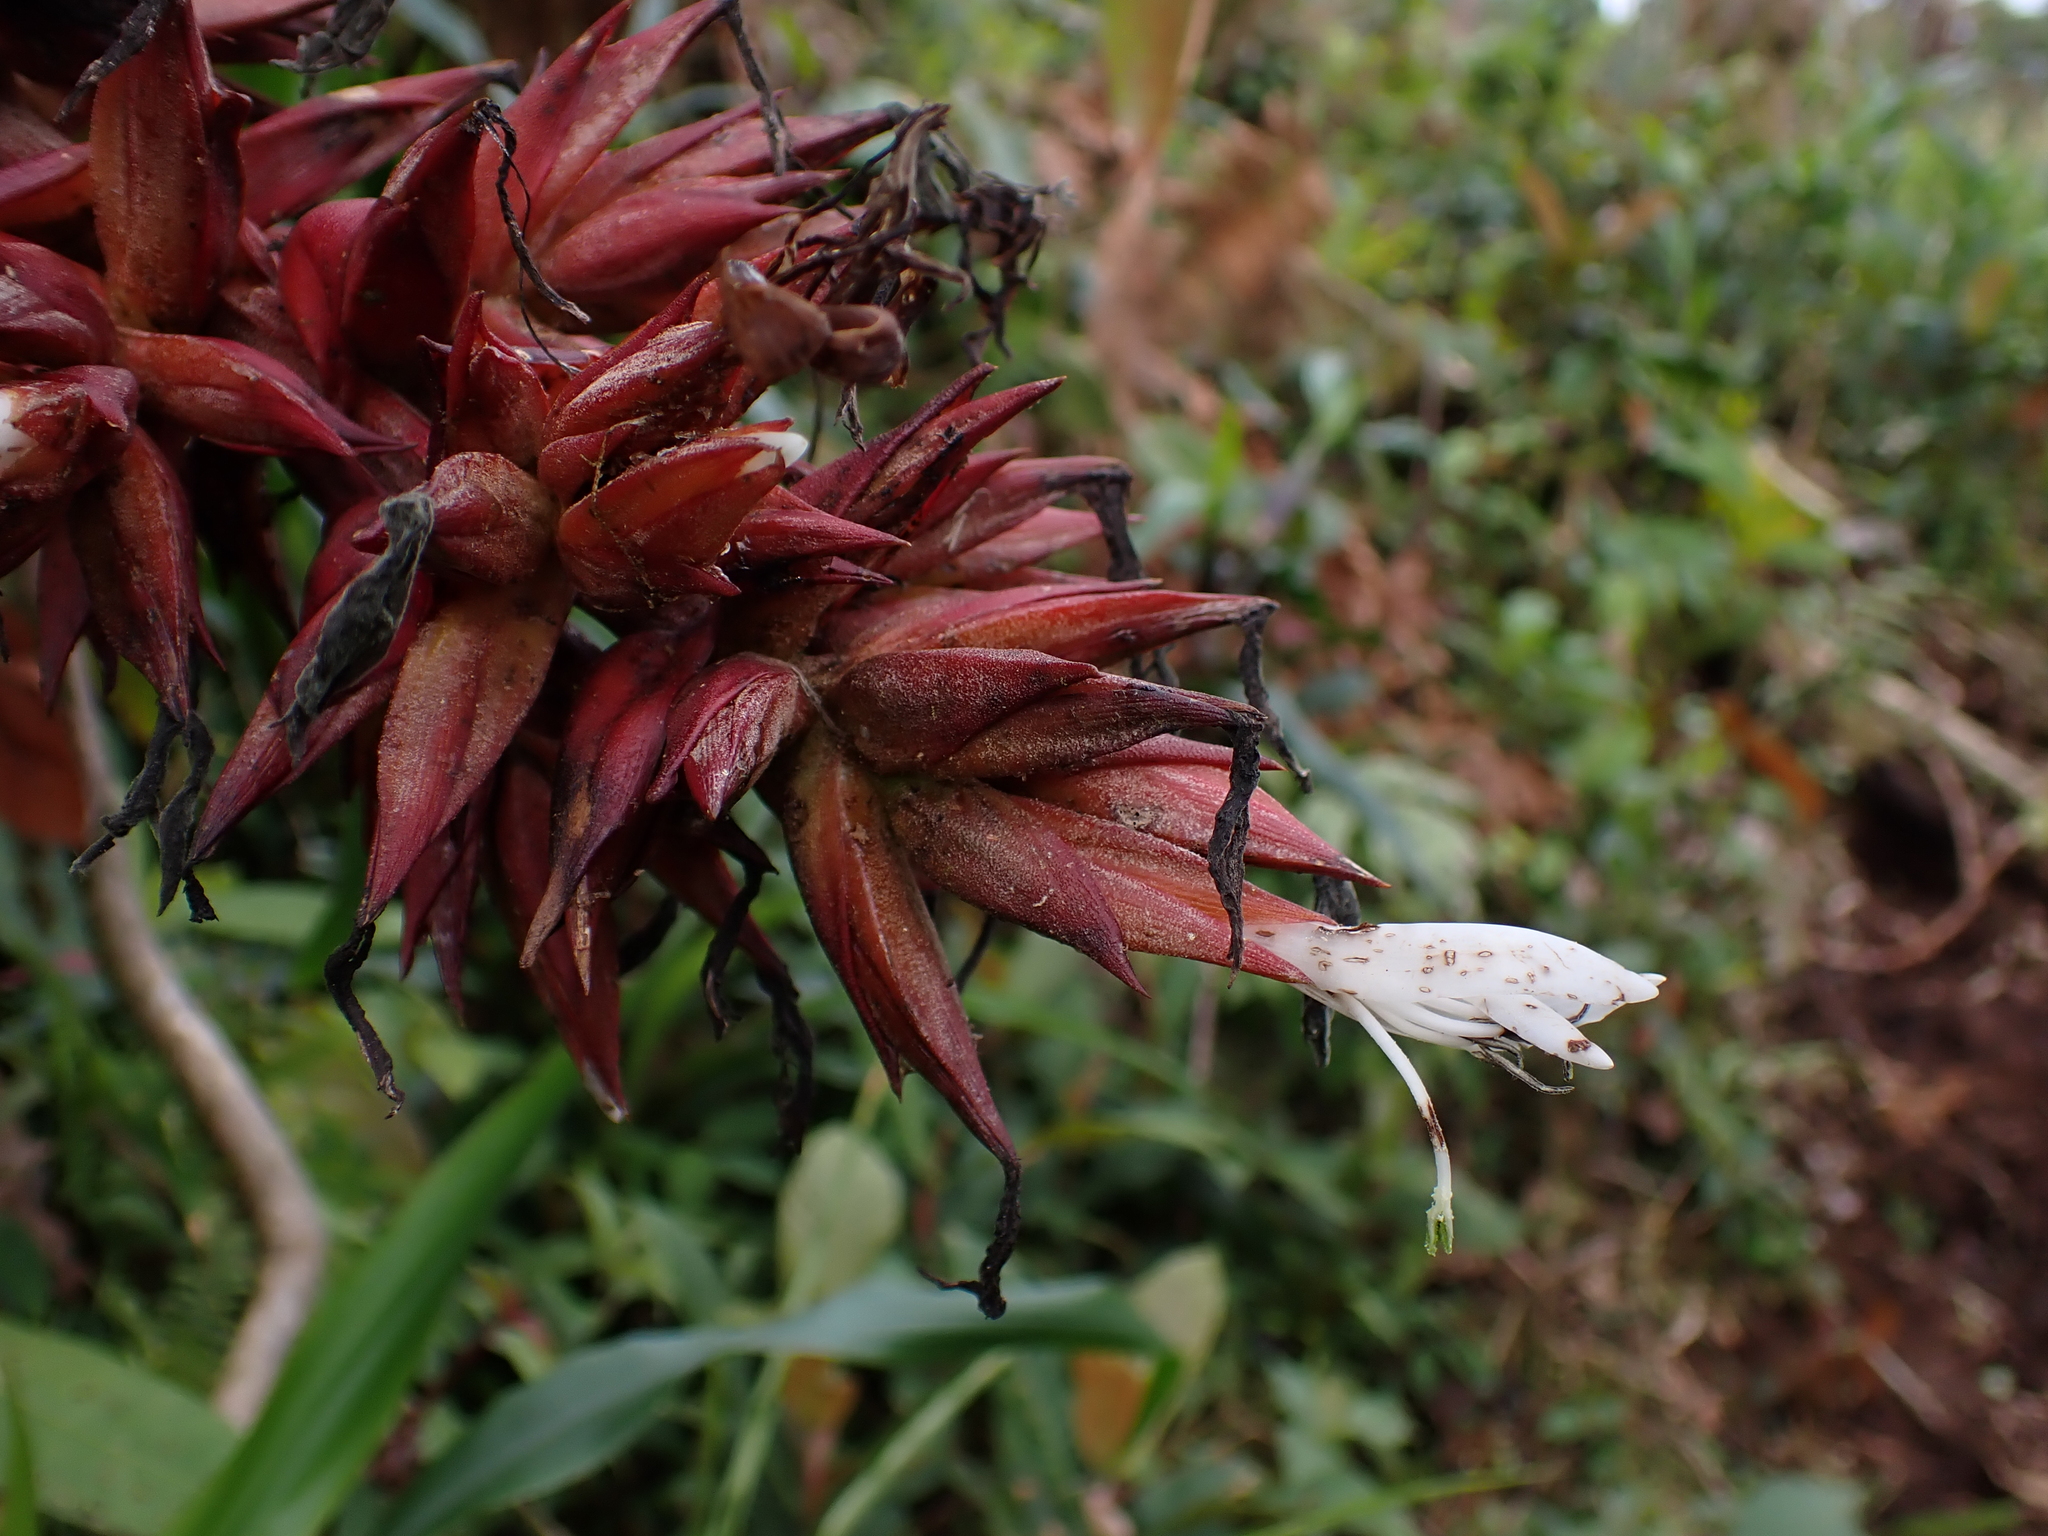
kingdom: Plantae
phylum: Tracheophyta
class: Liliopsida
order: Poales
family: Bromeliaceae
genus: Guzmania
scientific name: Guzmania lehmanniana
